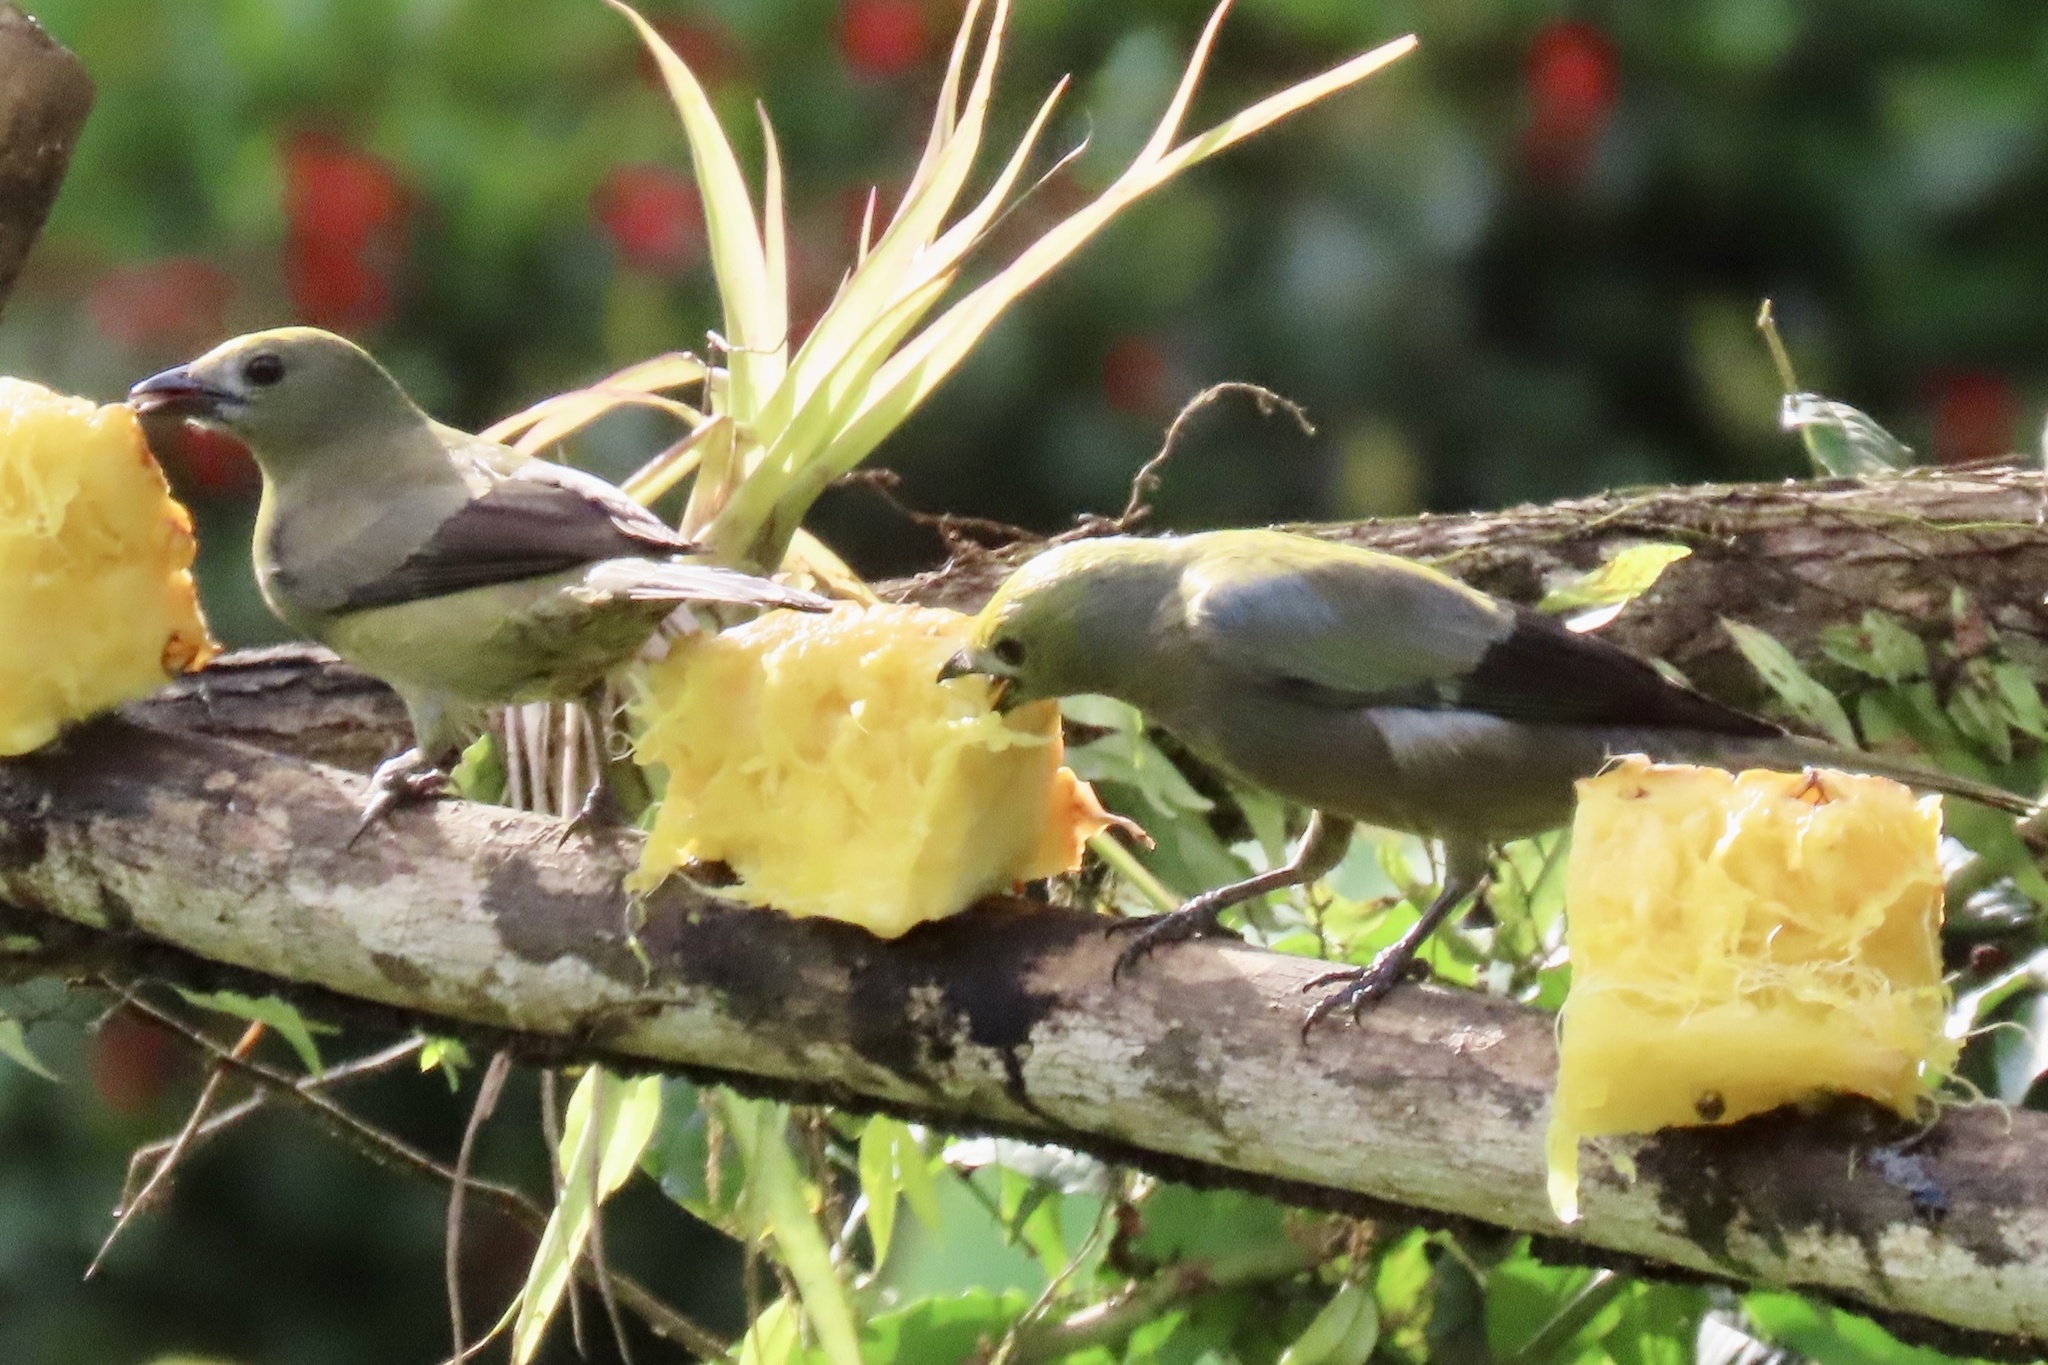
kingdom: Animalia
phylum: Chordata
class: Aves
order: Passeriformes
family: Thraupidae
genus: Thraupis
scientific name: Thraupis palmarum
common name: Palm tanager
